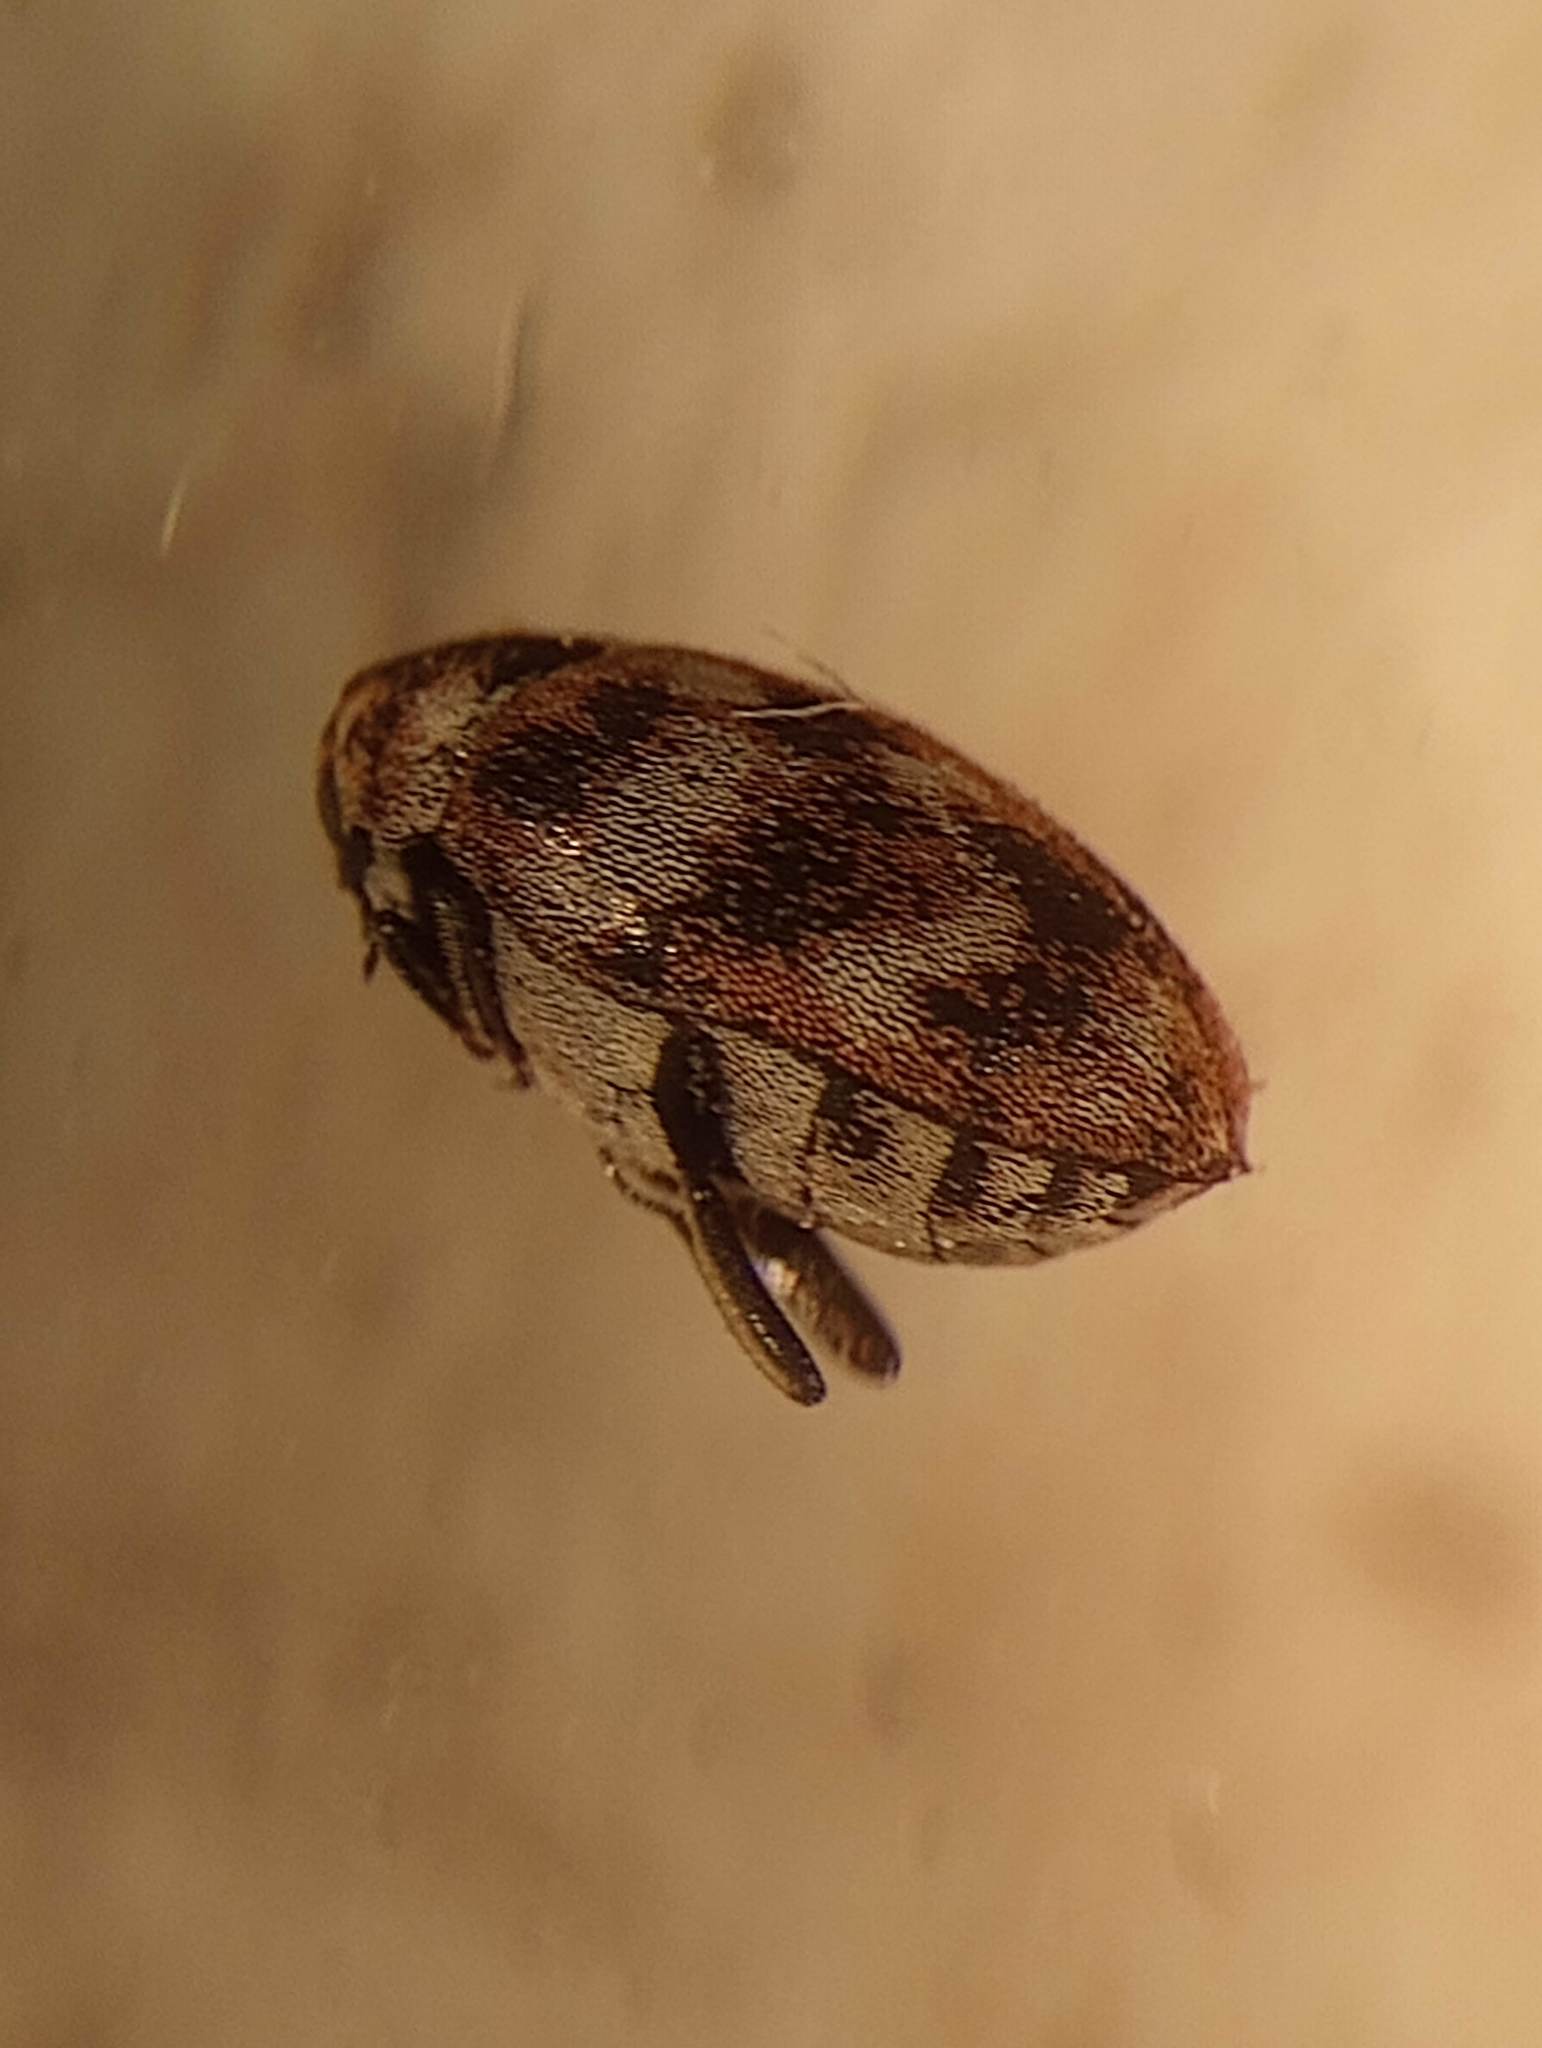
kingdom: Animalia
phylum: Arthropoda
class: Insecta
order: Coleoptera
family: Dermestidae
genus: Anthrenus
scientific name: Anthrenus verbasci
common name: Varied carpet beetle
